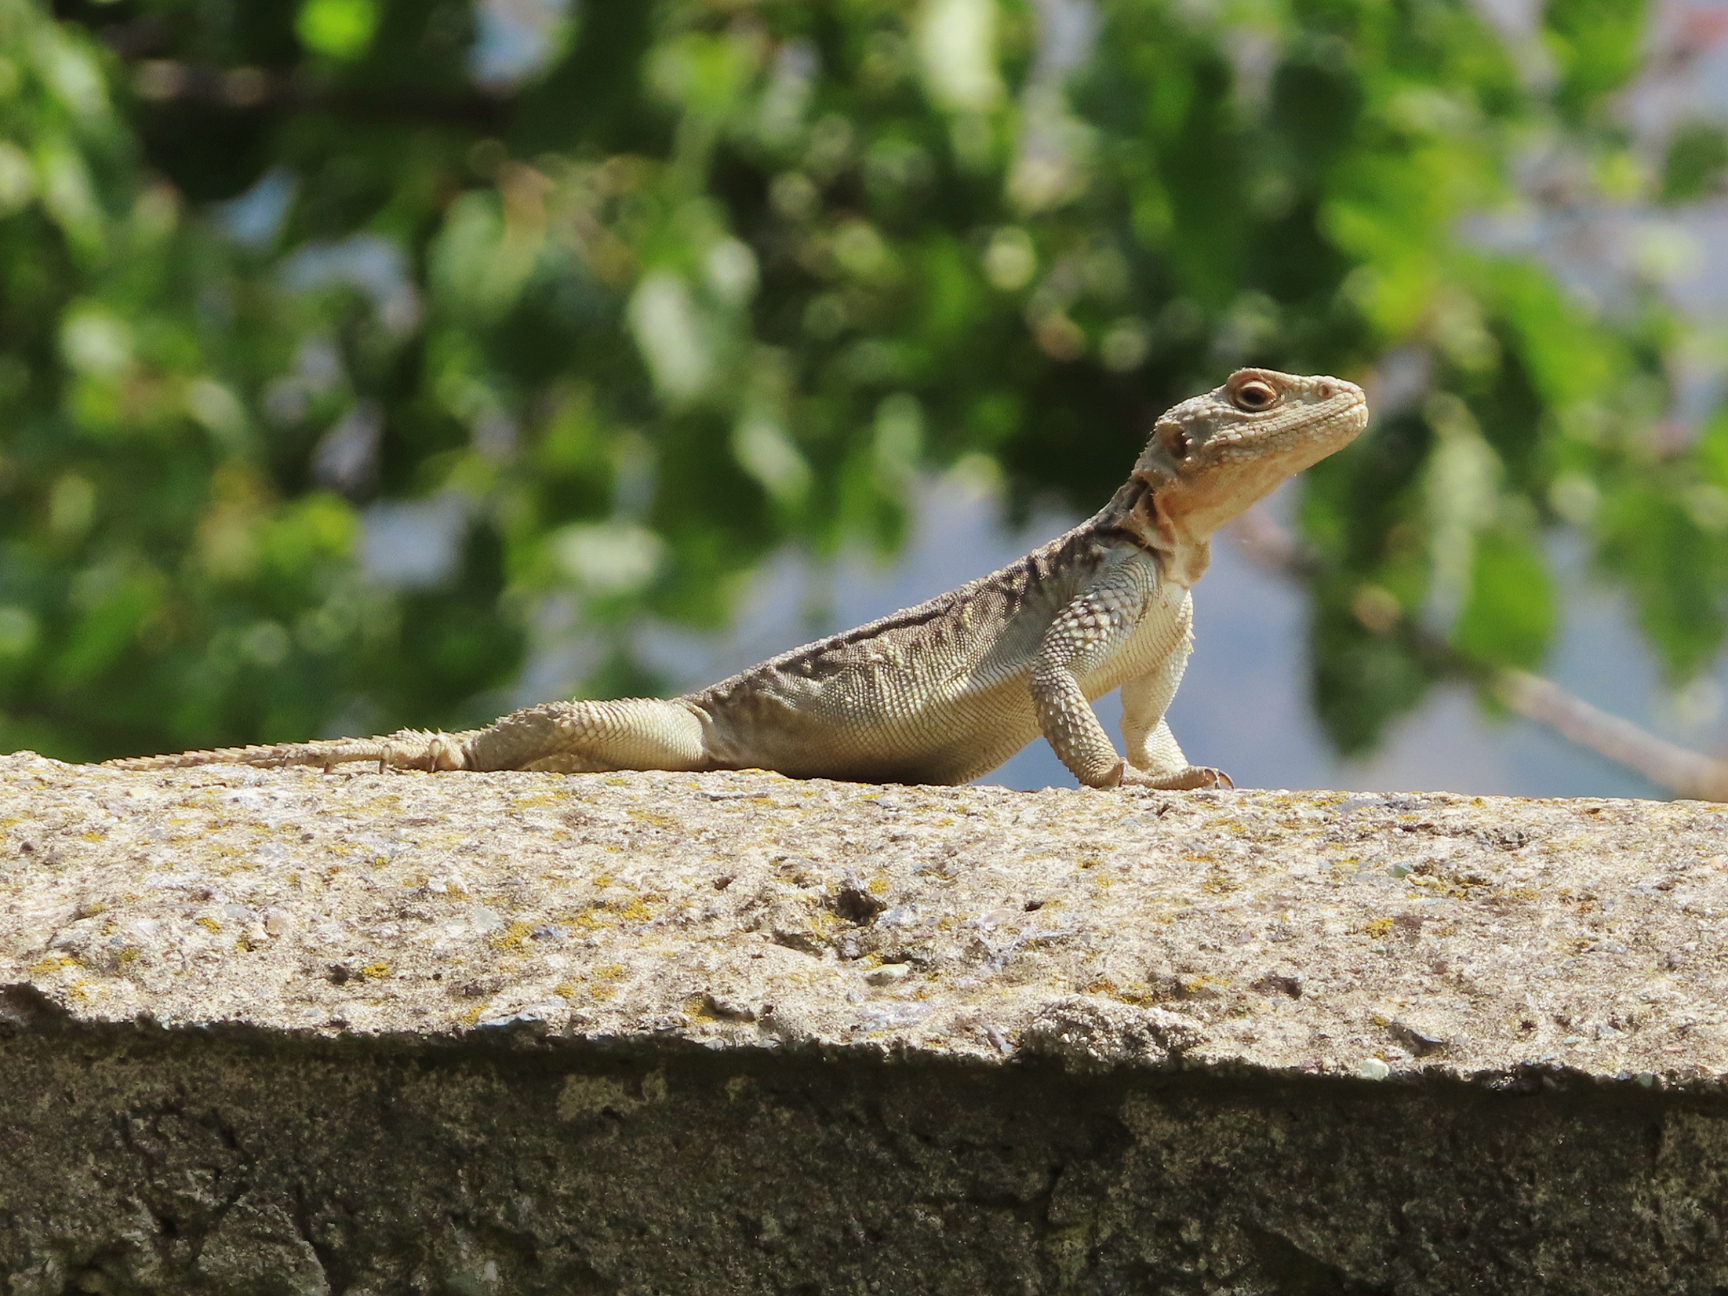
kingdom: Animalia
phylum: Chordata
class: Squamata
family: Agamidae
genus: Paralaudakia
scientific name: Paralaudakia caucasia
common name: Caucasian agama
